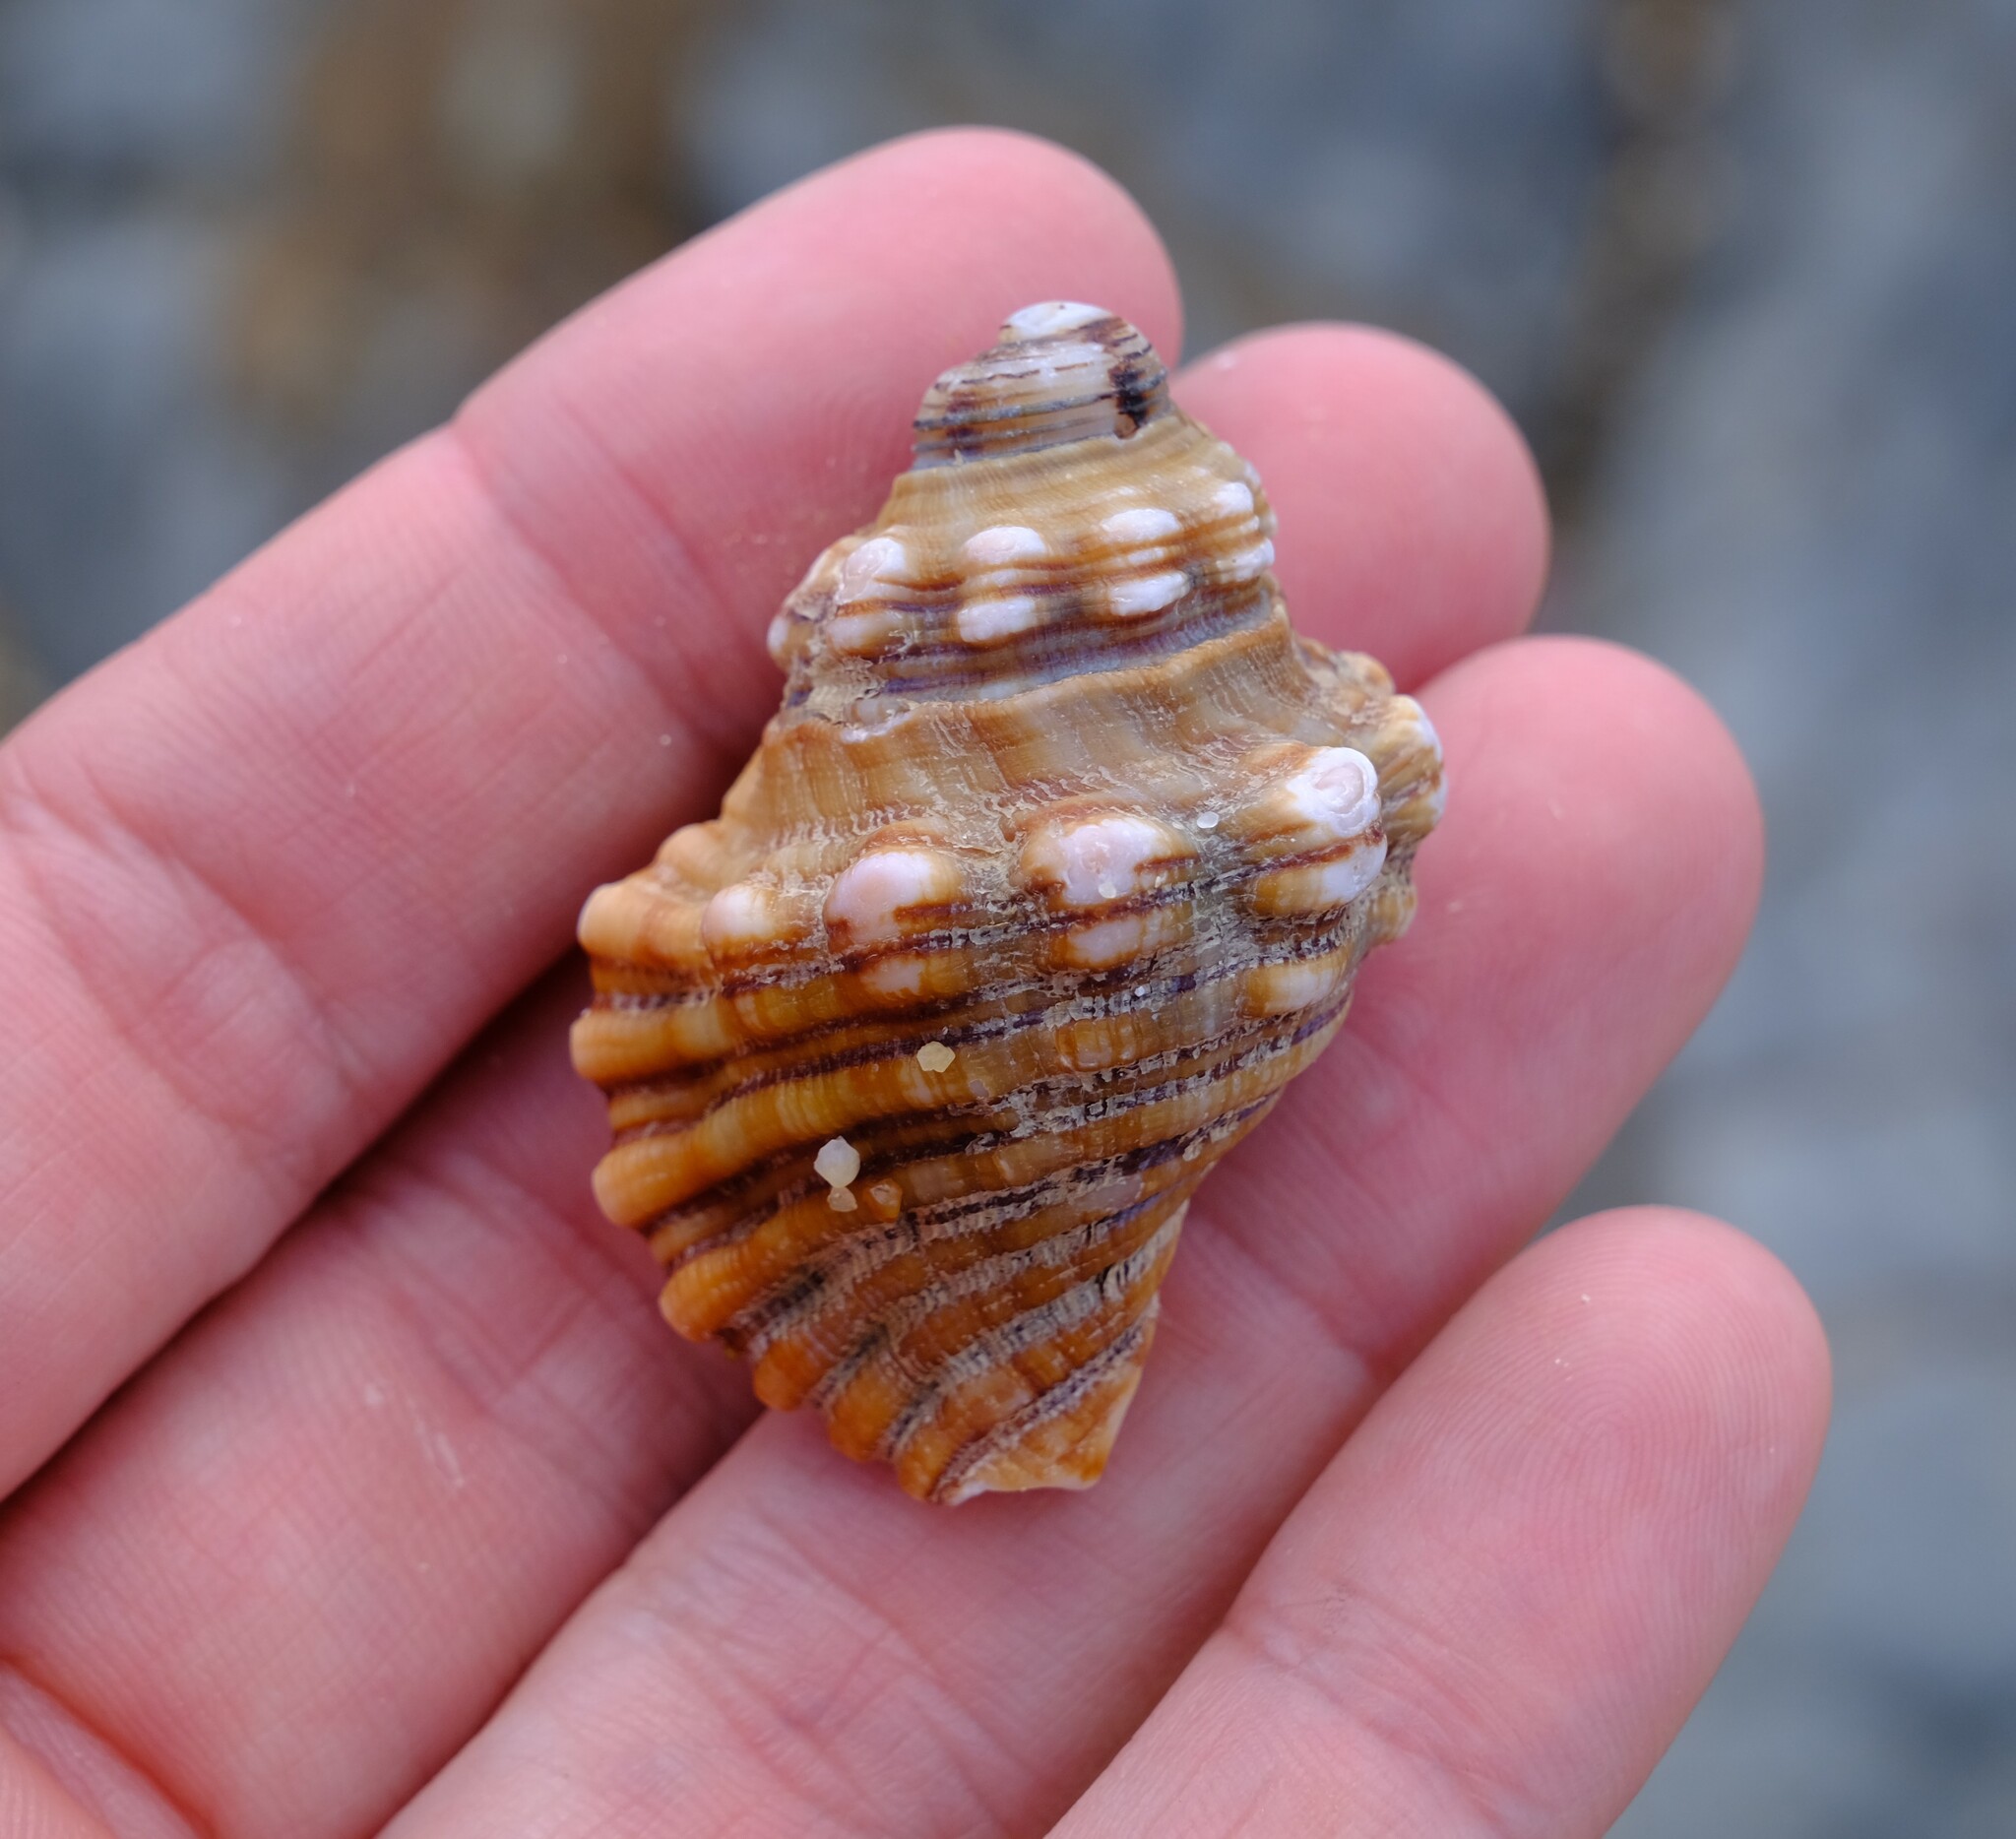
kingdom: Animalia
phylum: Mollusca
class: Gastropoda
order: Littorinimorpha
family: Cymatiidae
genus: Cabestana
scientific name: Cabestana spengleri
